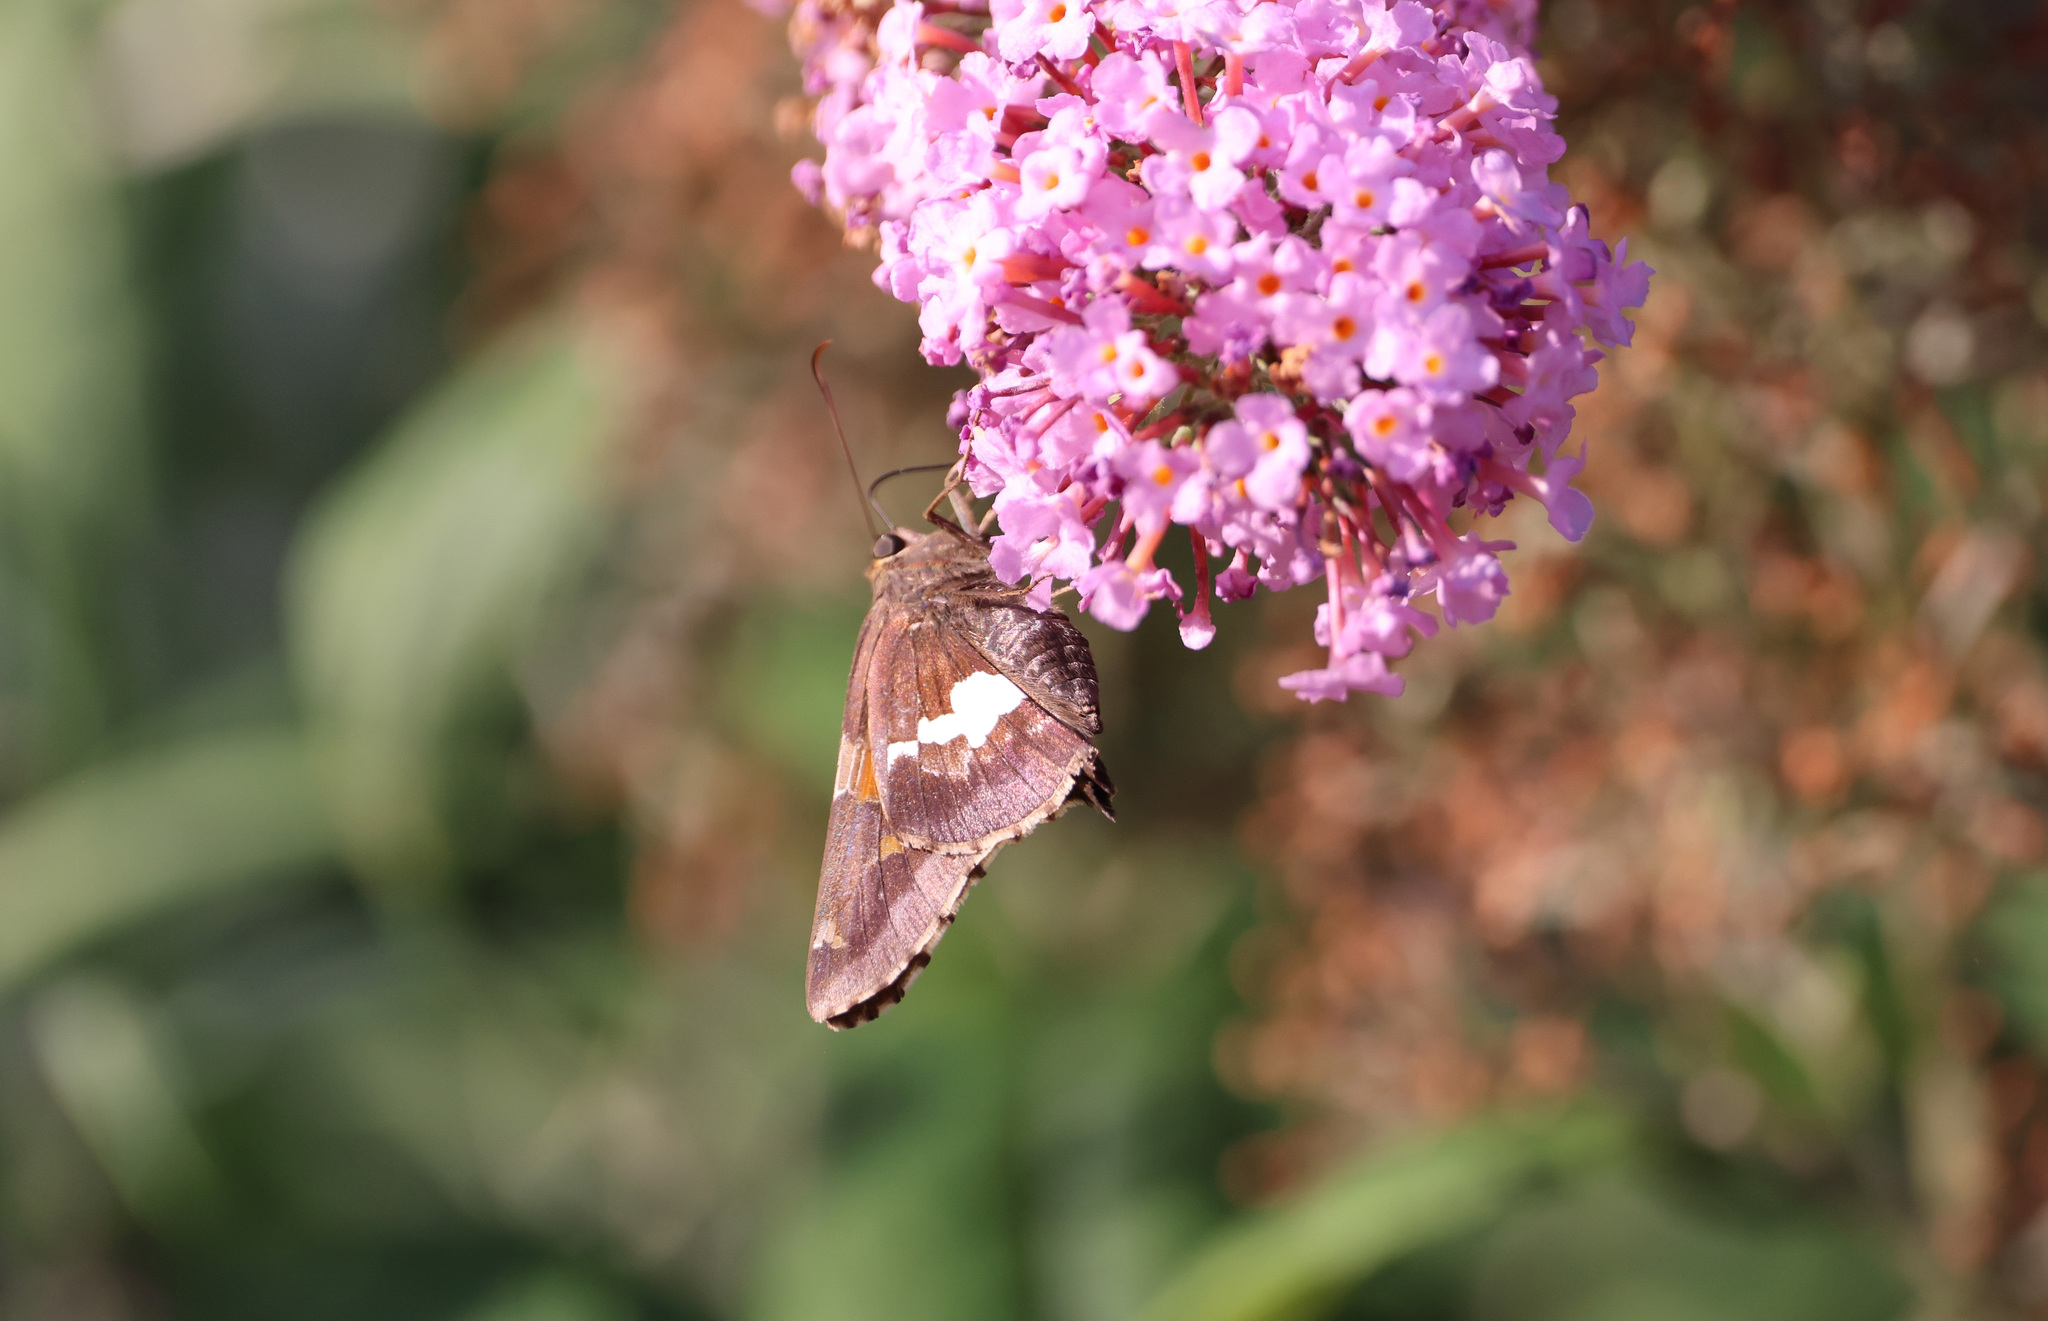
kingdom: Animalia
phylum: Arthropoda
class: Insecta
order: Lepidoptera
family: Hesperiidae
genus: Epargyreus
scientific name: Epargyreus clarus
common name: Silver-spotted skipper
